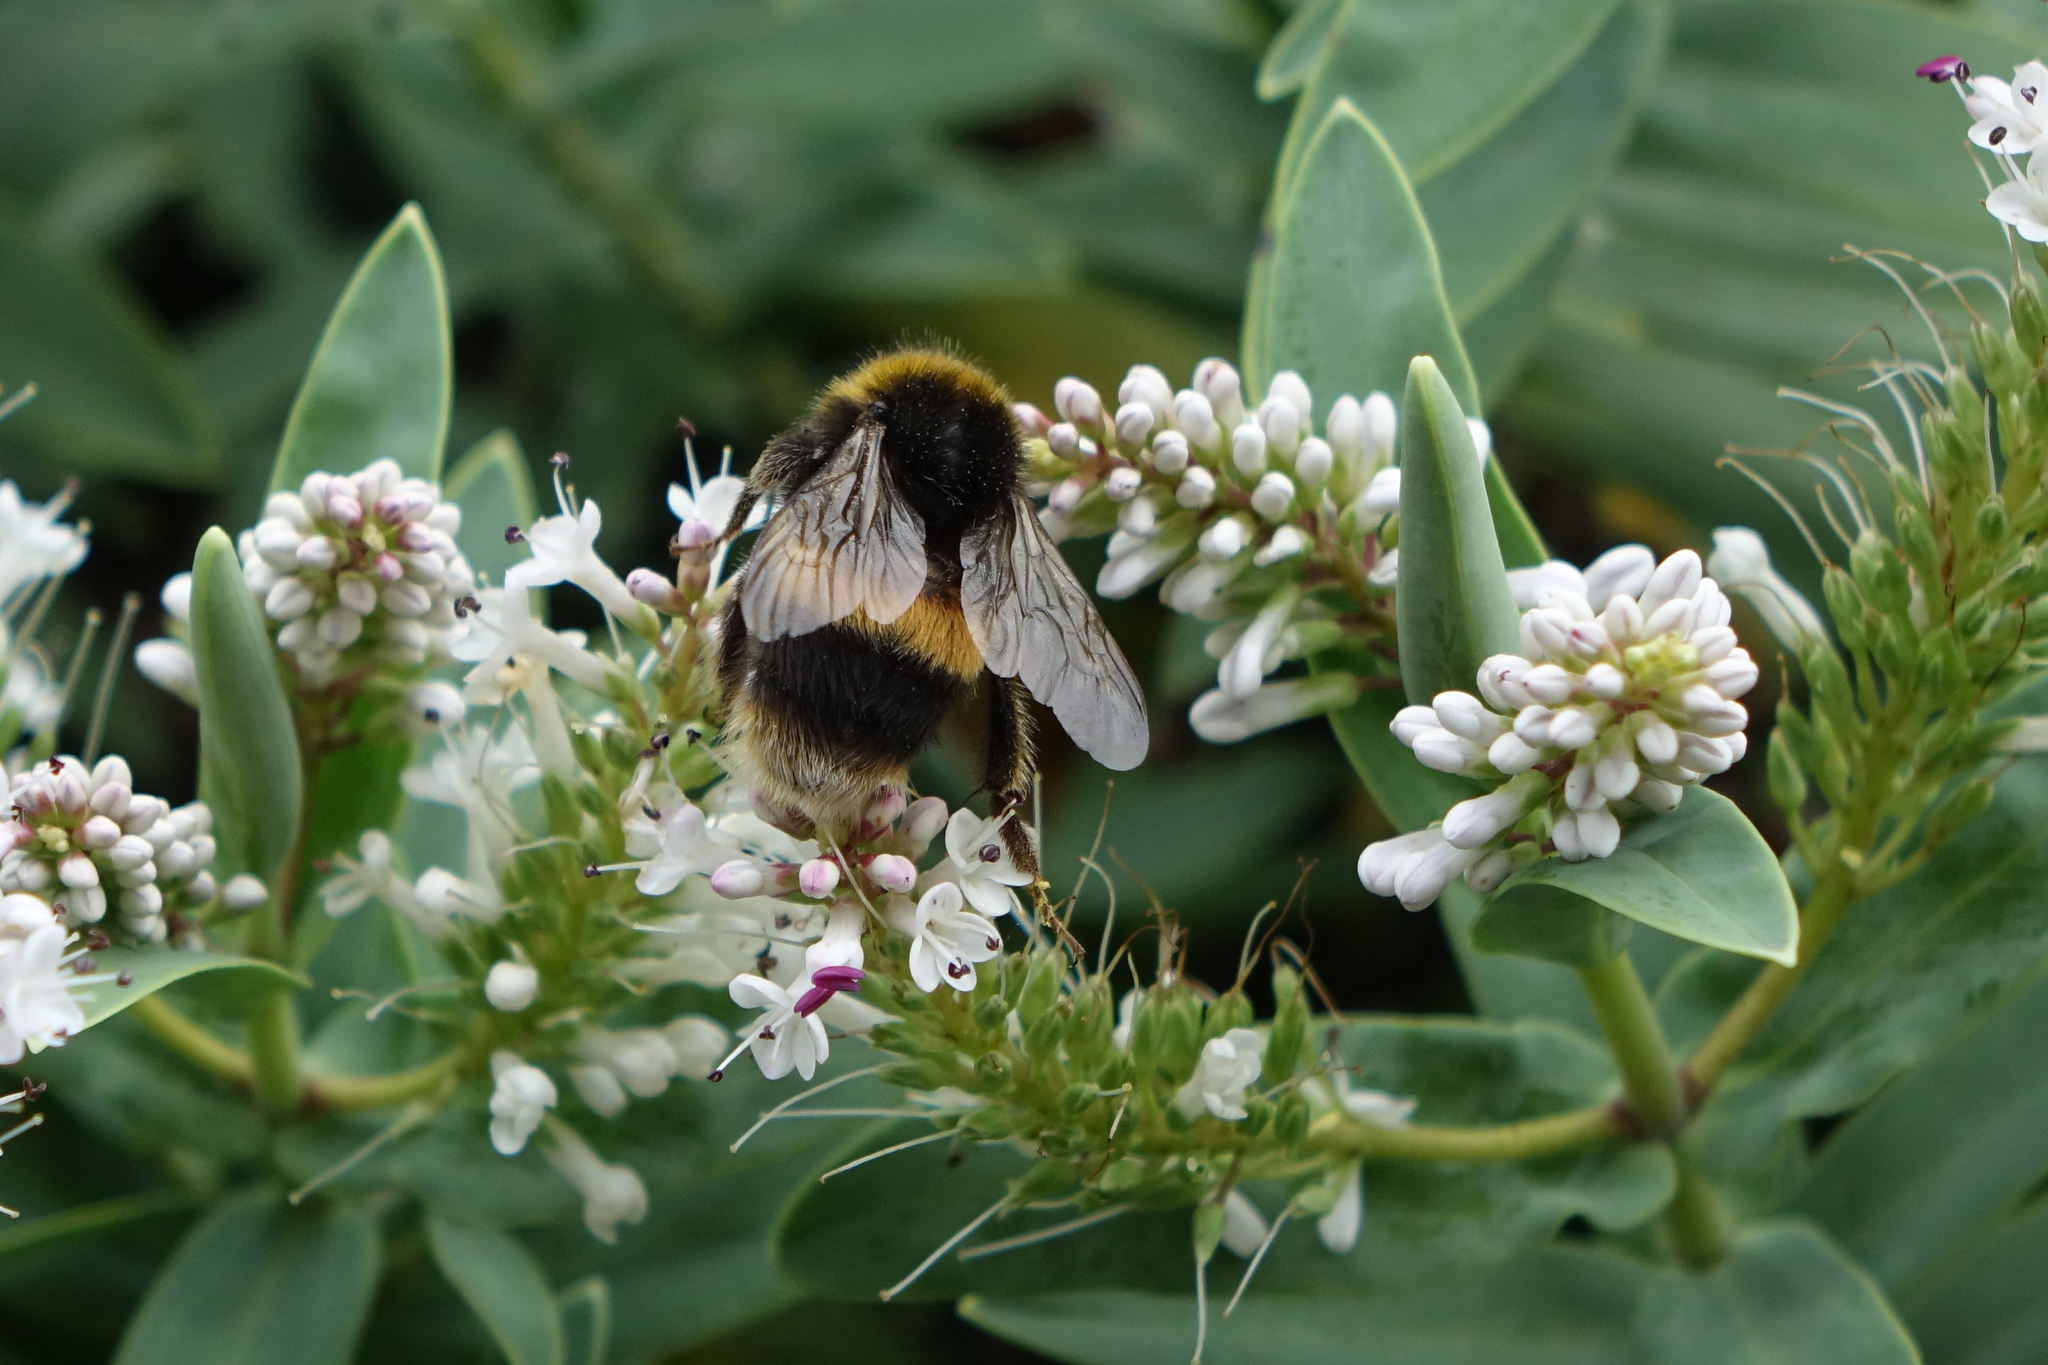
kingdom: Animalia
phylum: Arthropoda
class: Insecta
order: Hymenoptera
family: Apidae
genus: Bombus
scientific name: Bombus terrestris
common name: Buff-tailed bumblebee
